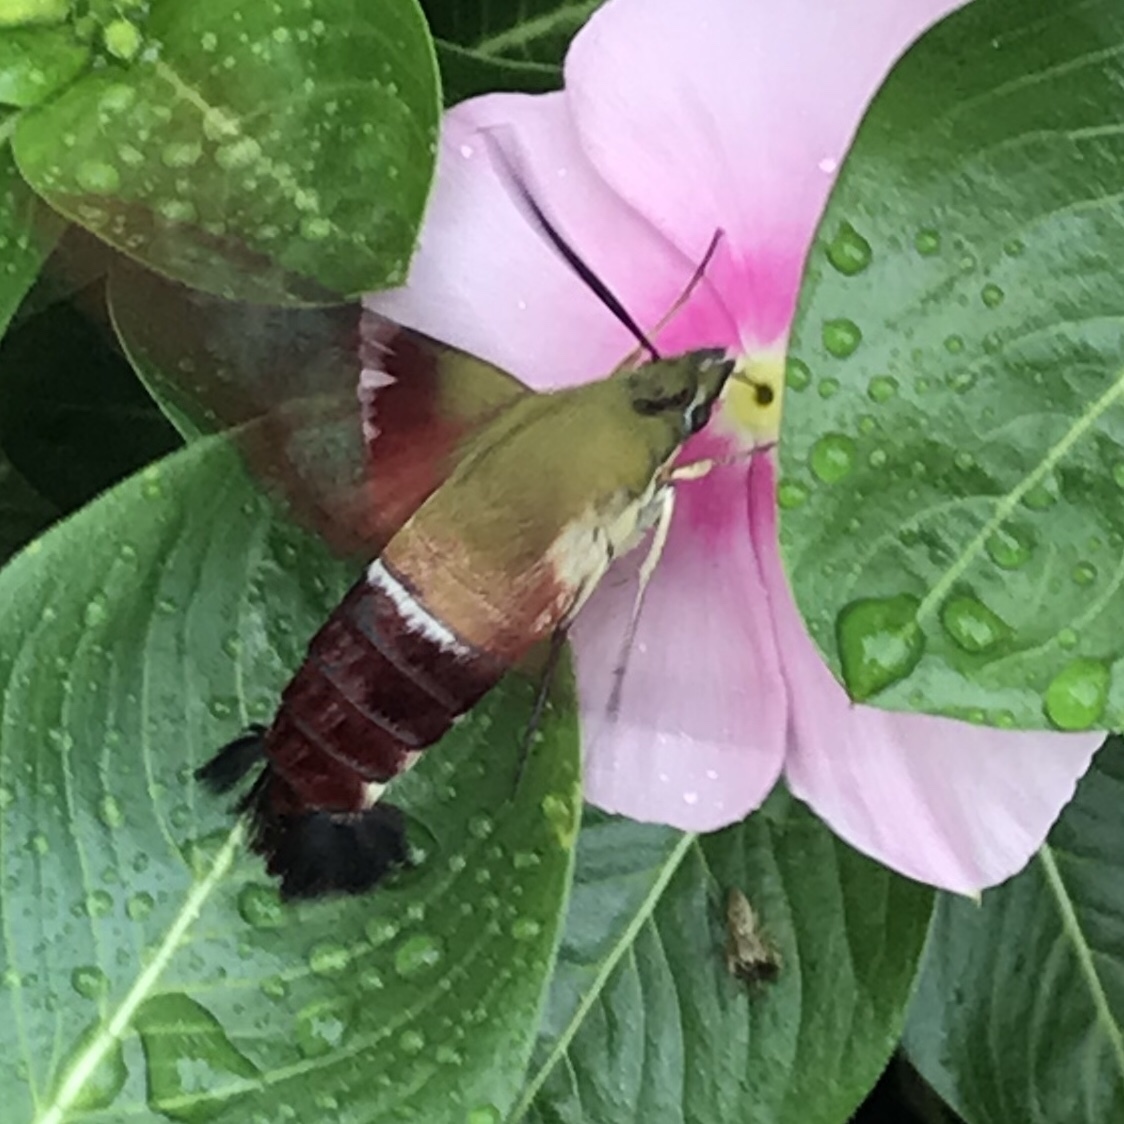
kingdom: Animalia
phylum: Arthropoda
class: Insecta
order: Lepidoptera
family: Sphingidae
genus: Hemaris
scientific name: Hemaris thysbe
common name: Common clear-wing
